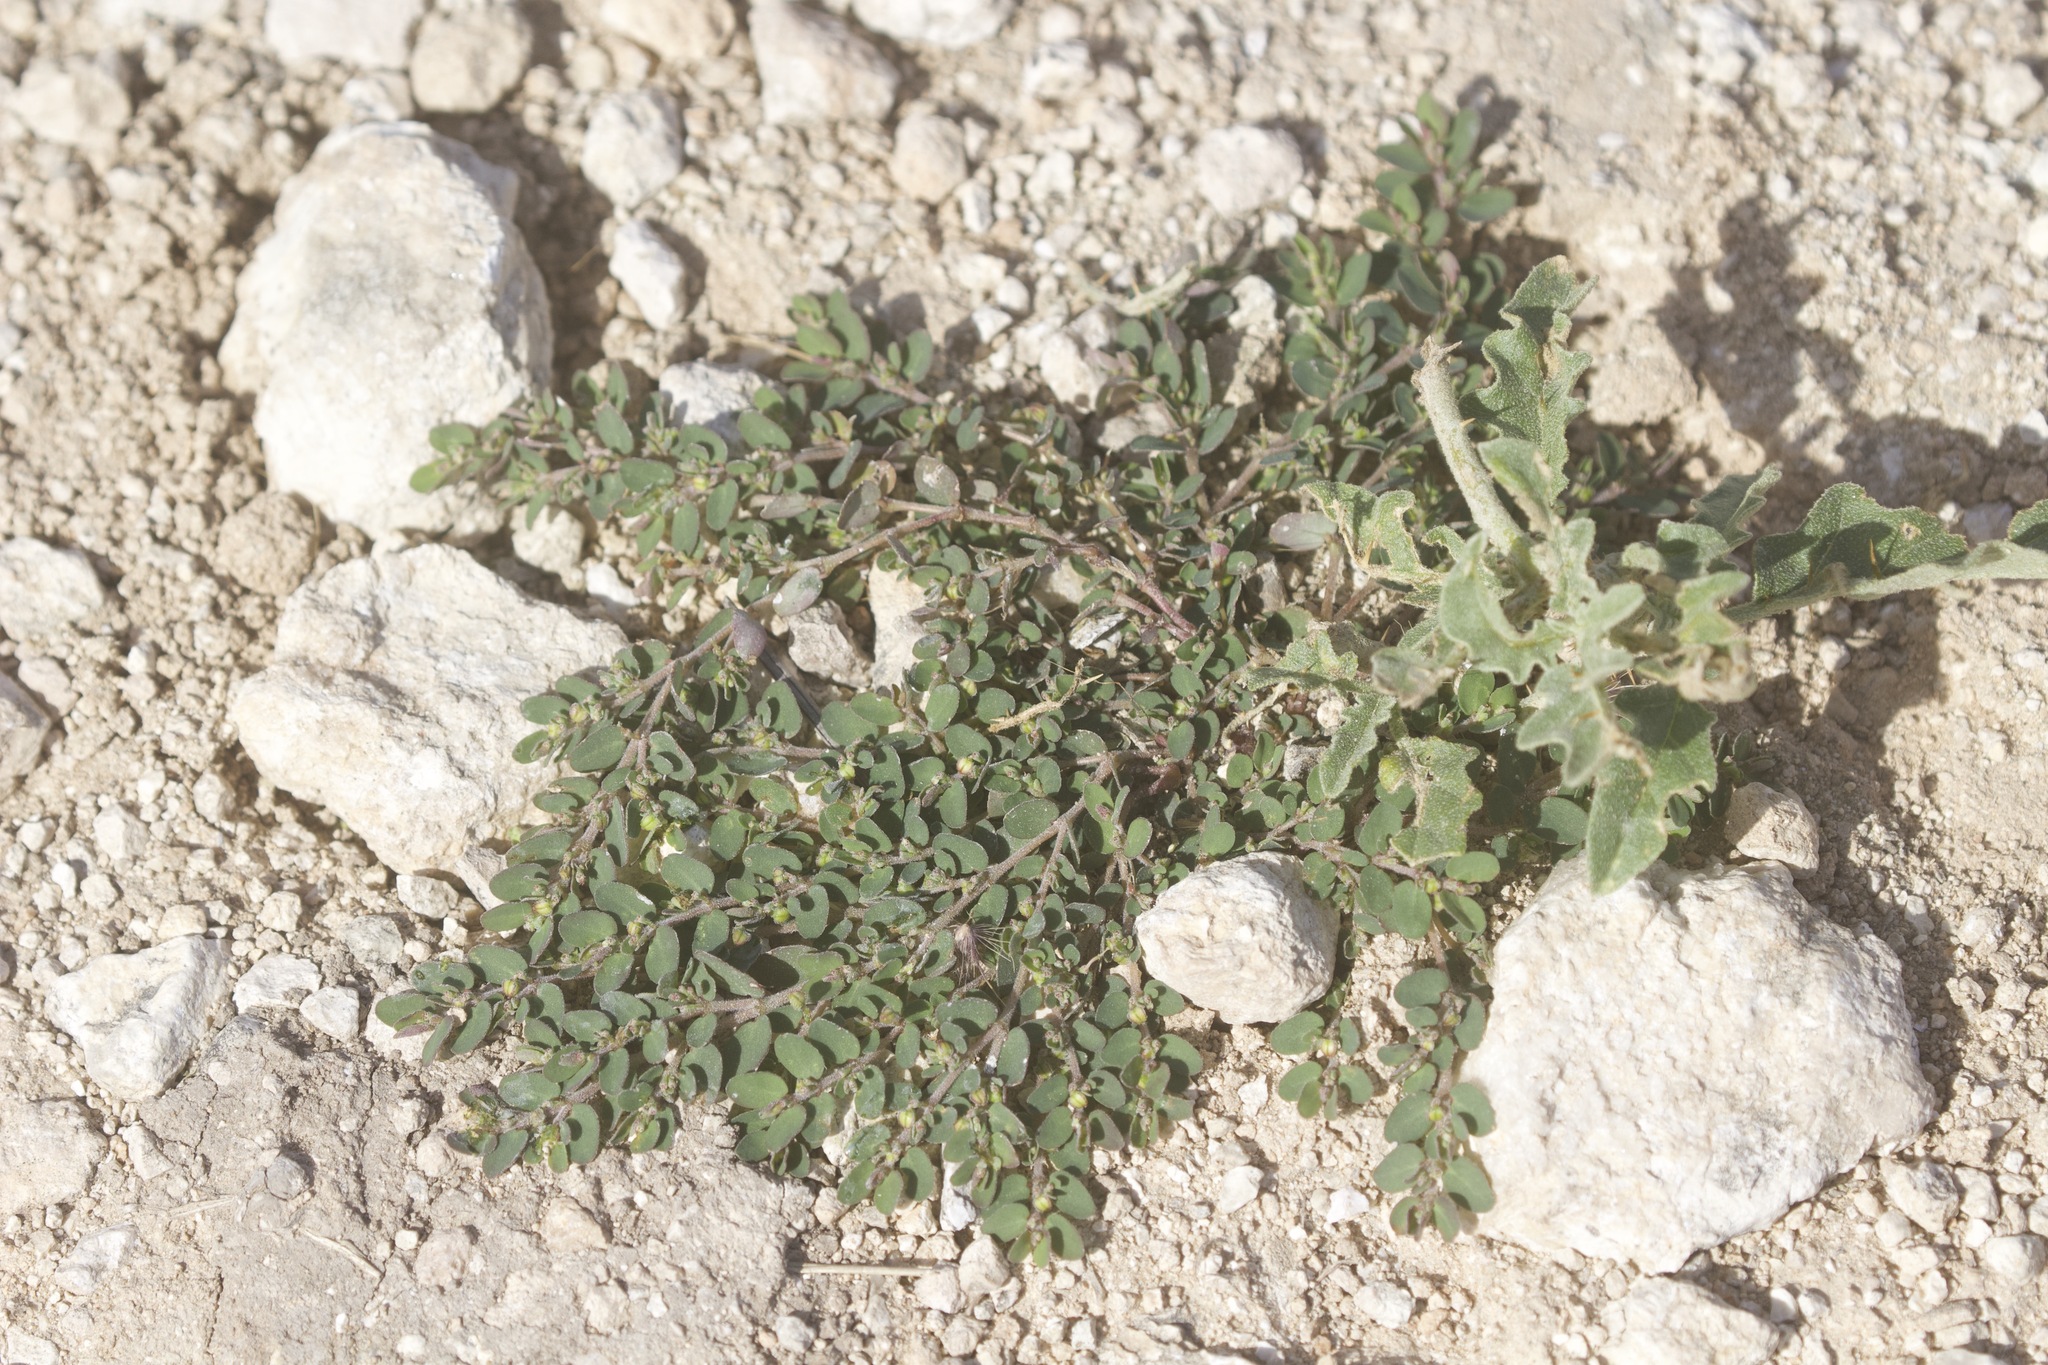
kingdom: Plantae
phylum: Tracheophyta
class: Magnoliopsida
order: Malpighiales
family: Euphorbiaceae
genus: Euphorbia
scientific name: Euphorbia prostrata
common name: Prostrate sandmat
